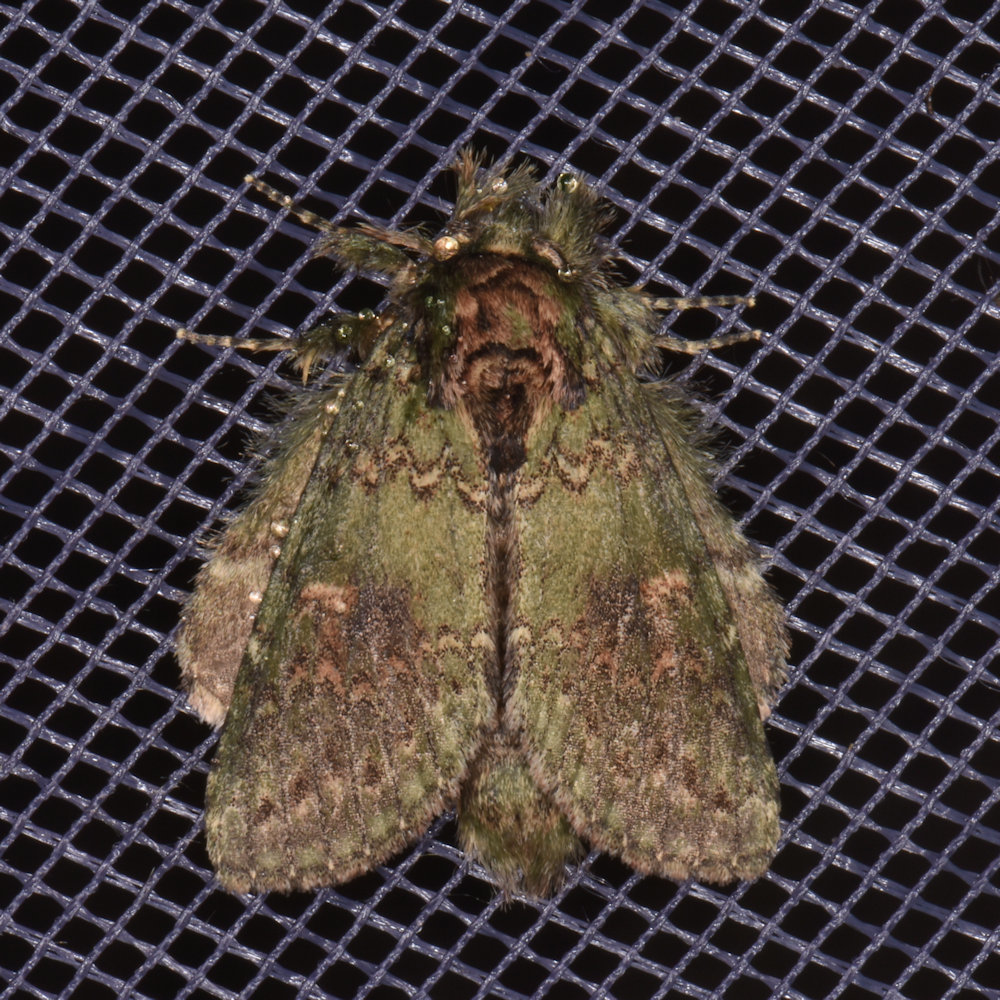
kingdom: Animalia
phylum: Arthropoda
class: Insecta
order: Lepidoptera
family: Notodontidae
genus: Disphragis
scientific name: Disphragis Cecrita biundata
